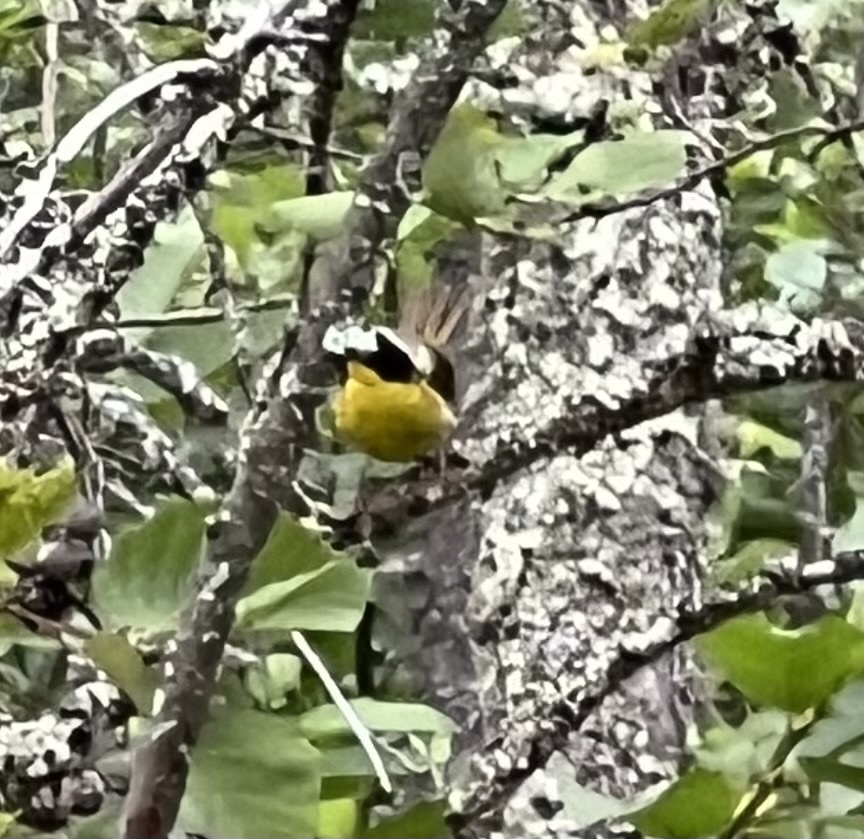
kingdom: Animalia
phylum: Chordata
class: Aves
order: Passeriformes
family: Parulidae
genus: Geothlypis
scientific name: Geothlypis trichas
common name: Common yellowthroat
